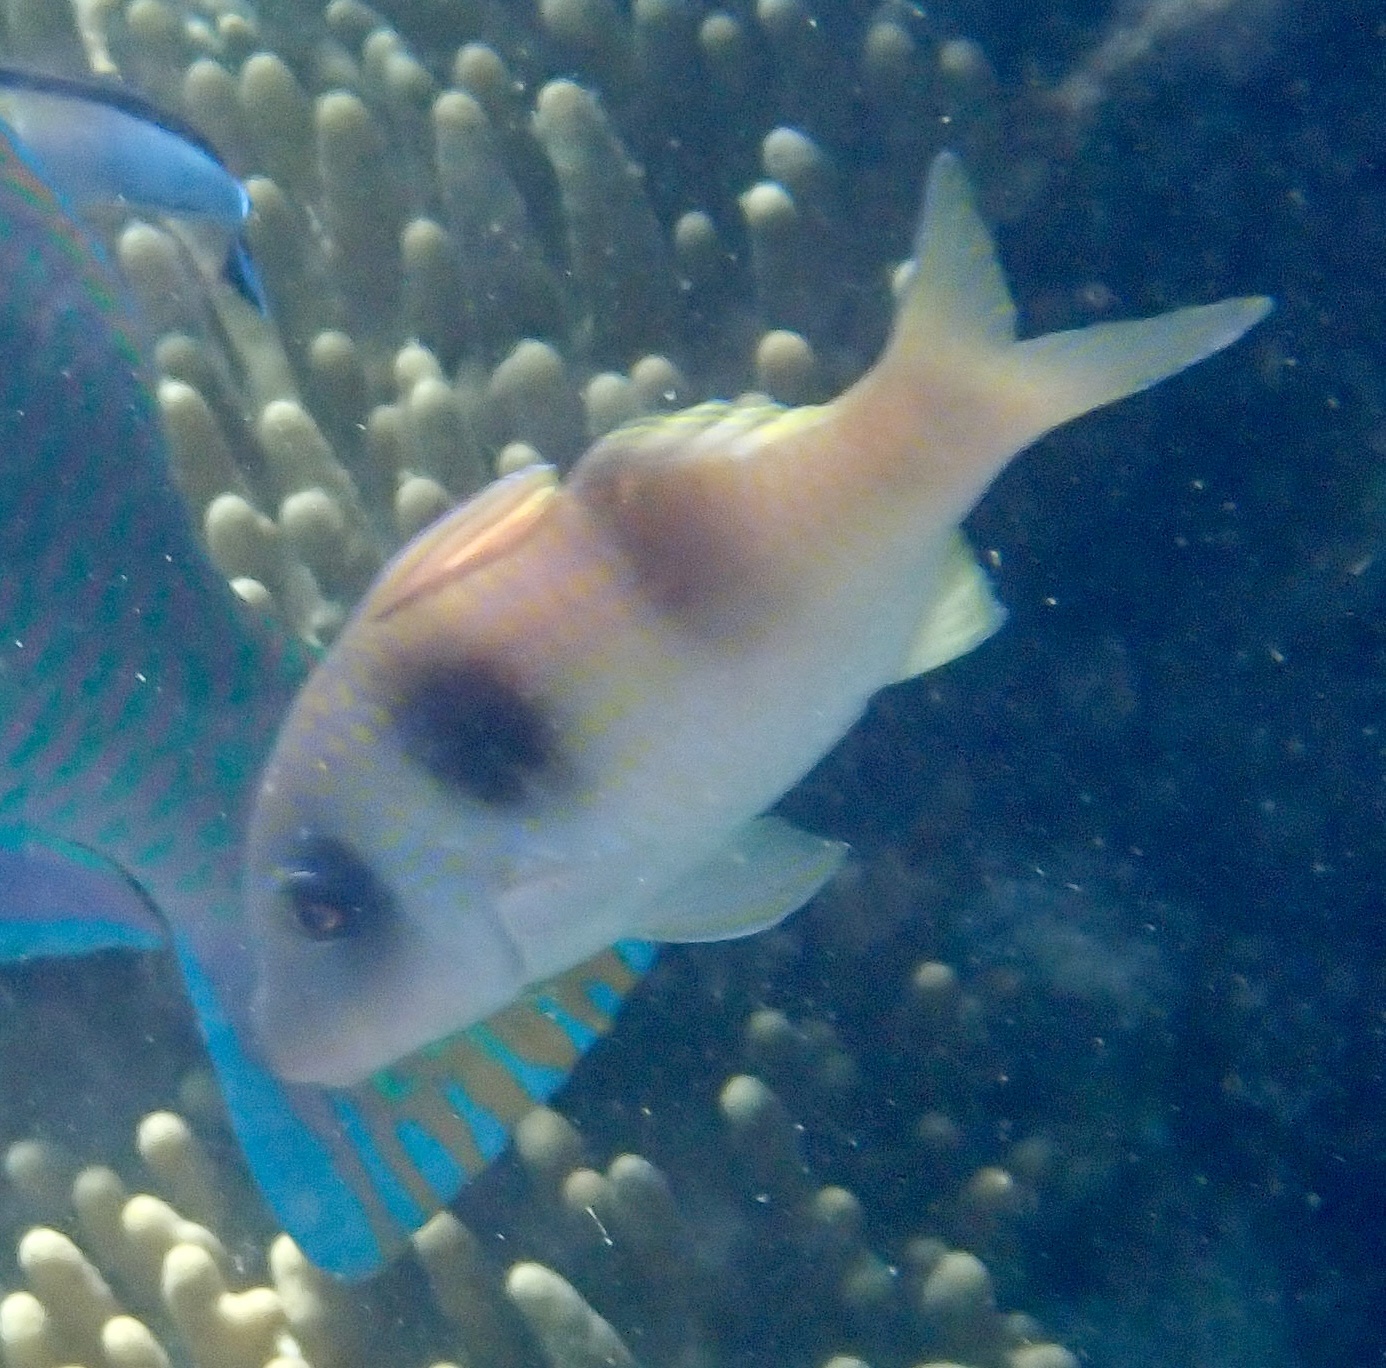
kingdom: Animalia
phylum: Chordata
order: Perciformes
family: Mullidae
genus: Parupeneus
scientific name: Parupeneus crassilabris
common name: Doublebar goatfish
